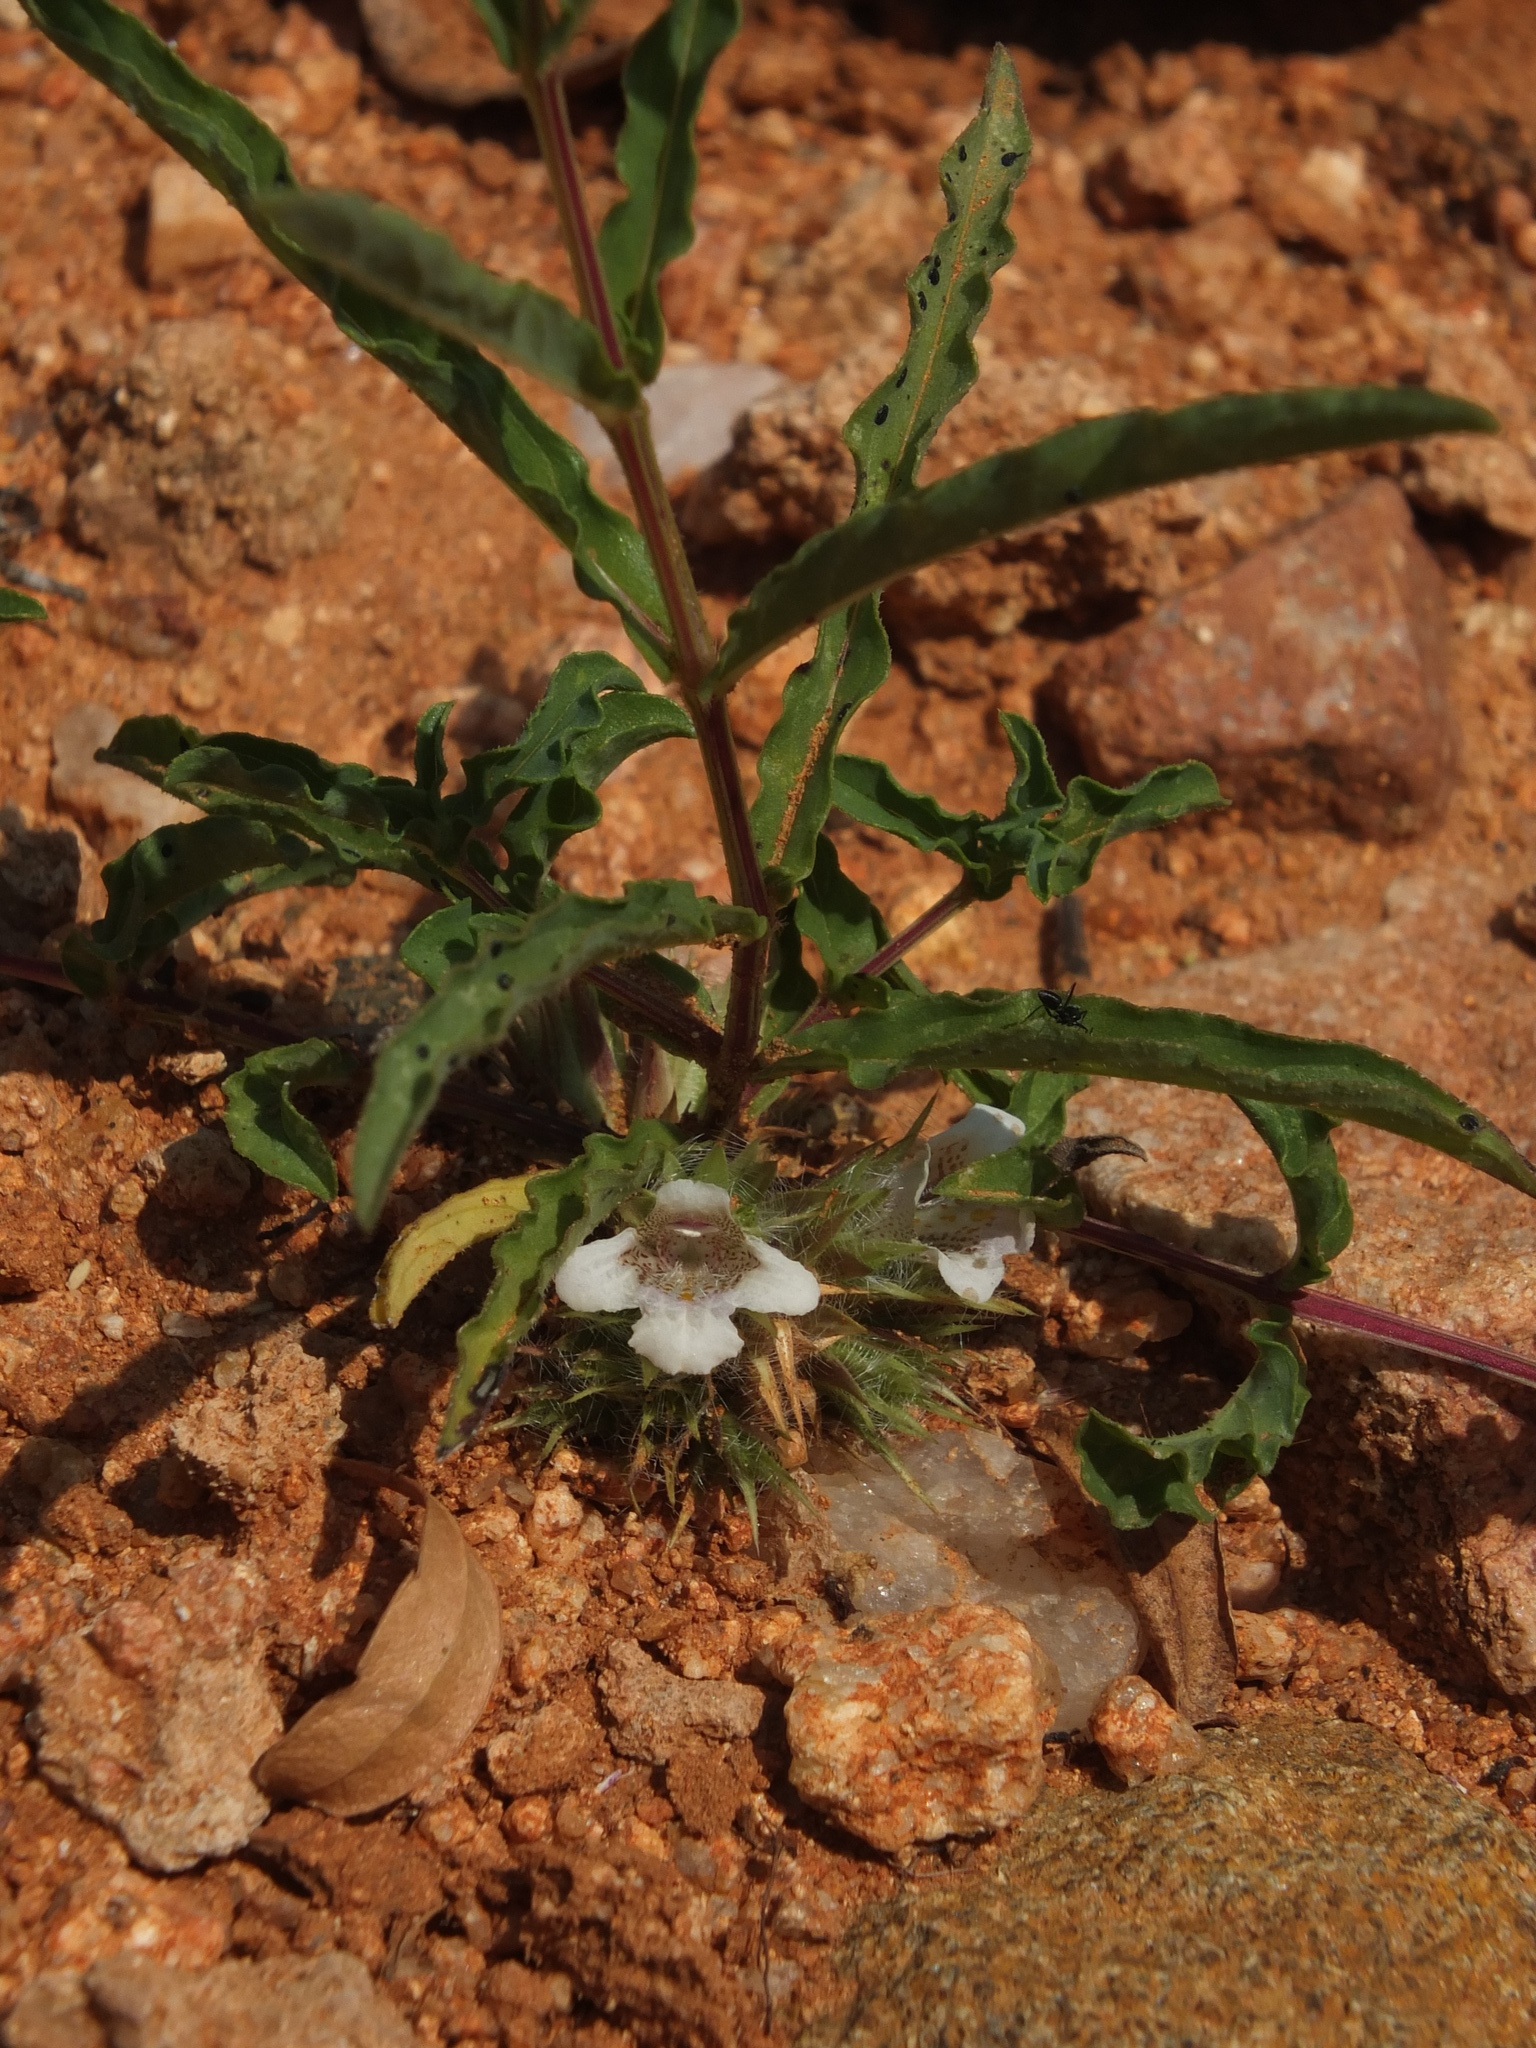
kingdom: Plantae
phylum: Tracheophyta
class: Magnoliopsida
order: Lamiales
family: Acanthaceae
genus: Lepidagathis
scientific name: Lepidagathis cristata
